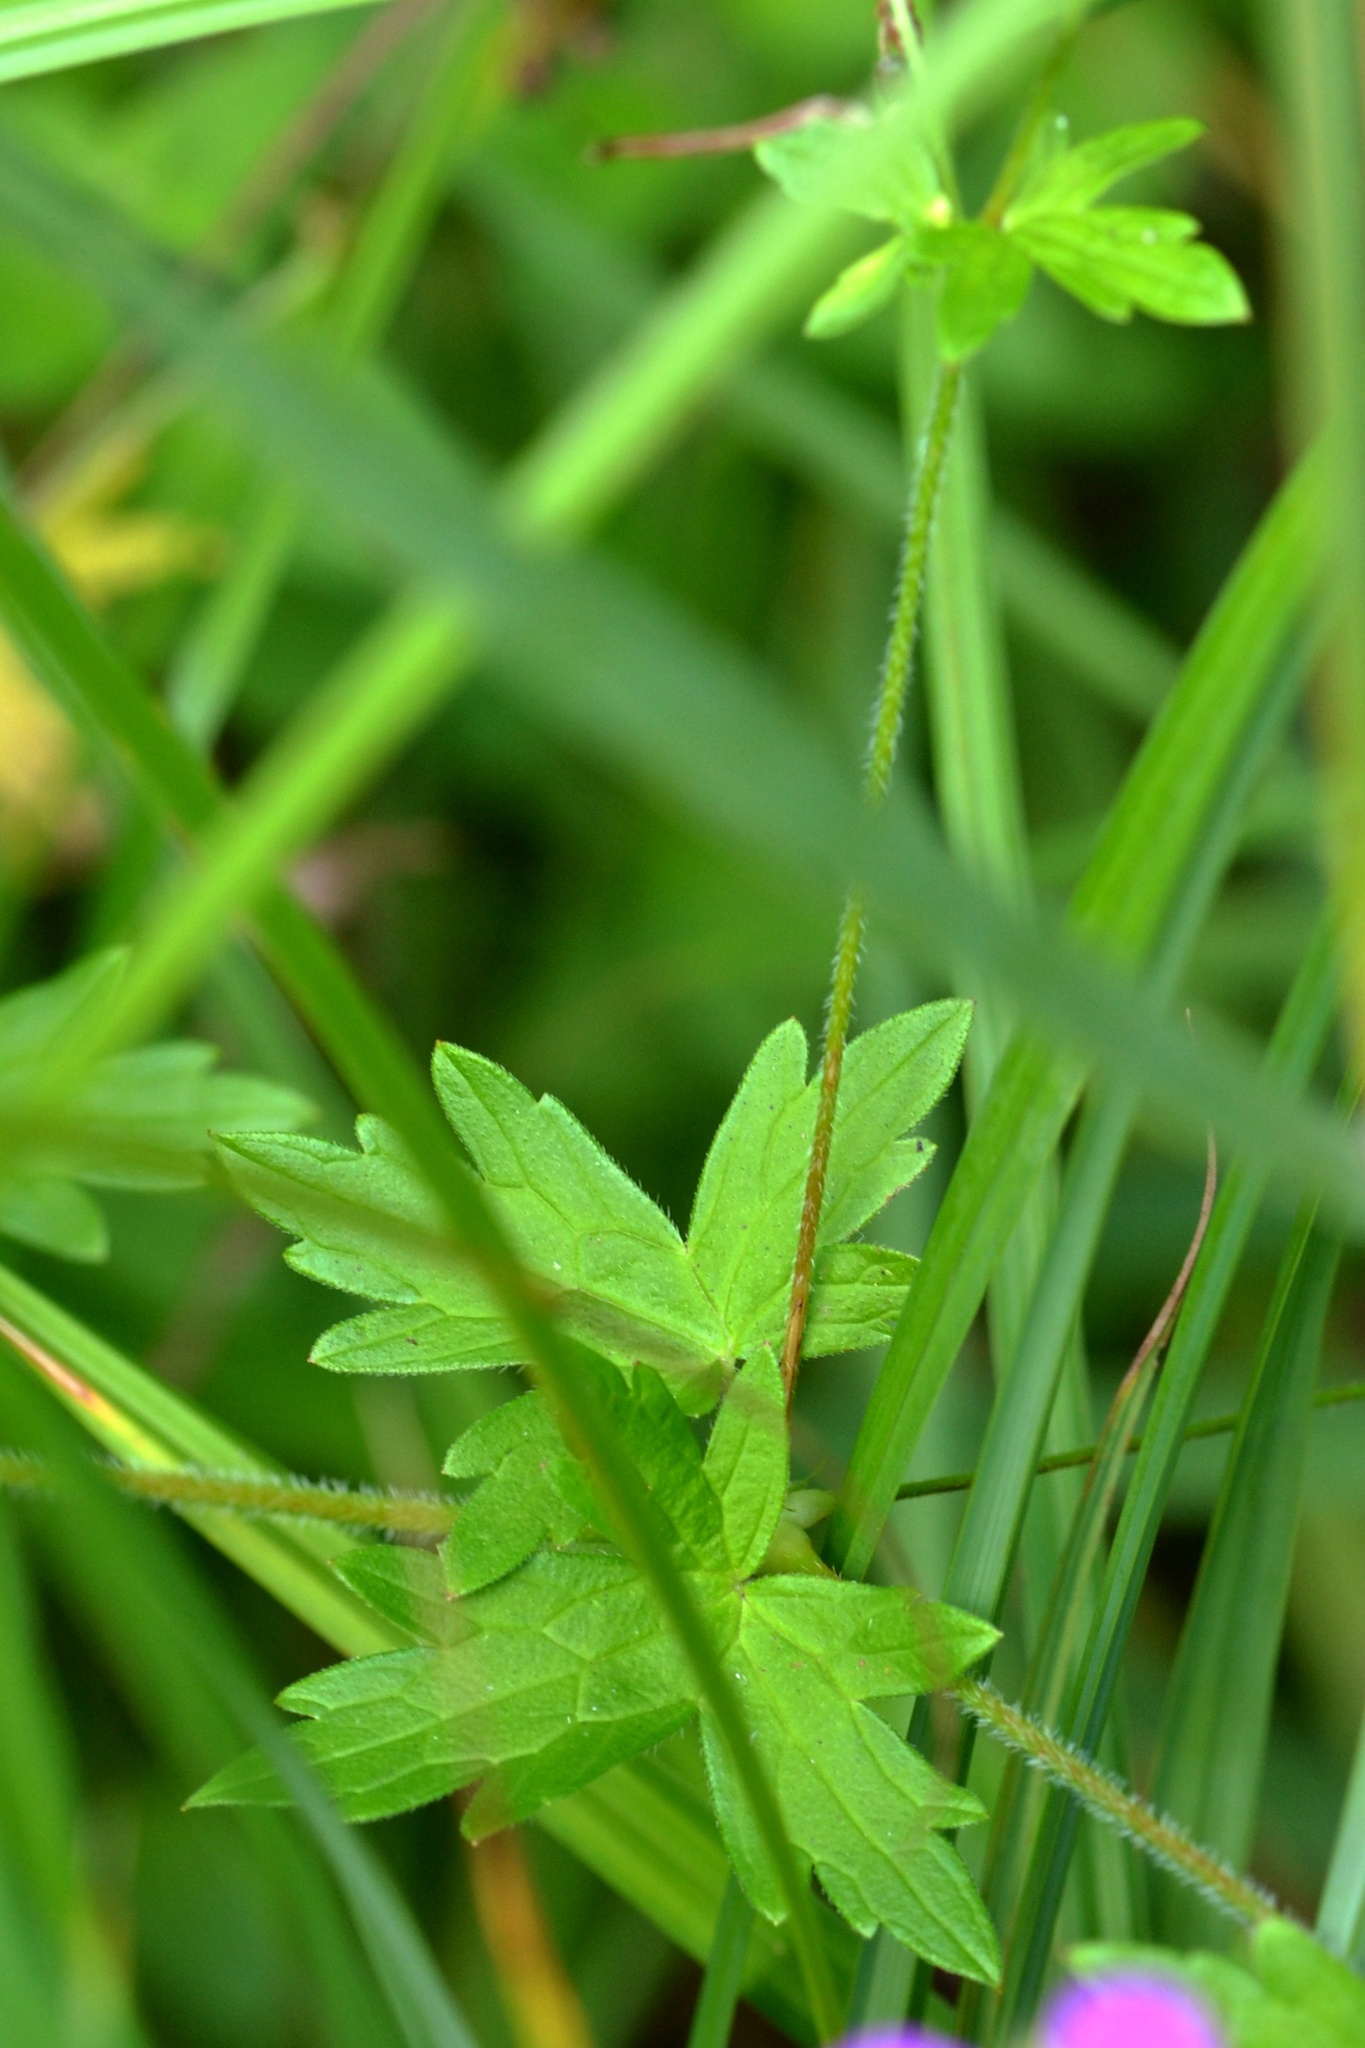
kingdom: Plantae
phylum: Tracheophyta
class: Magnoliopsida
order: Geraniales
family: Geraniaceae
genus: Geranium
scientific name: Geranium palustre
